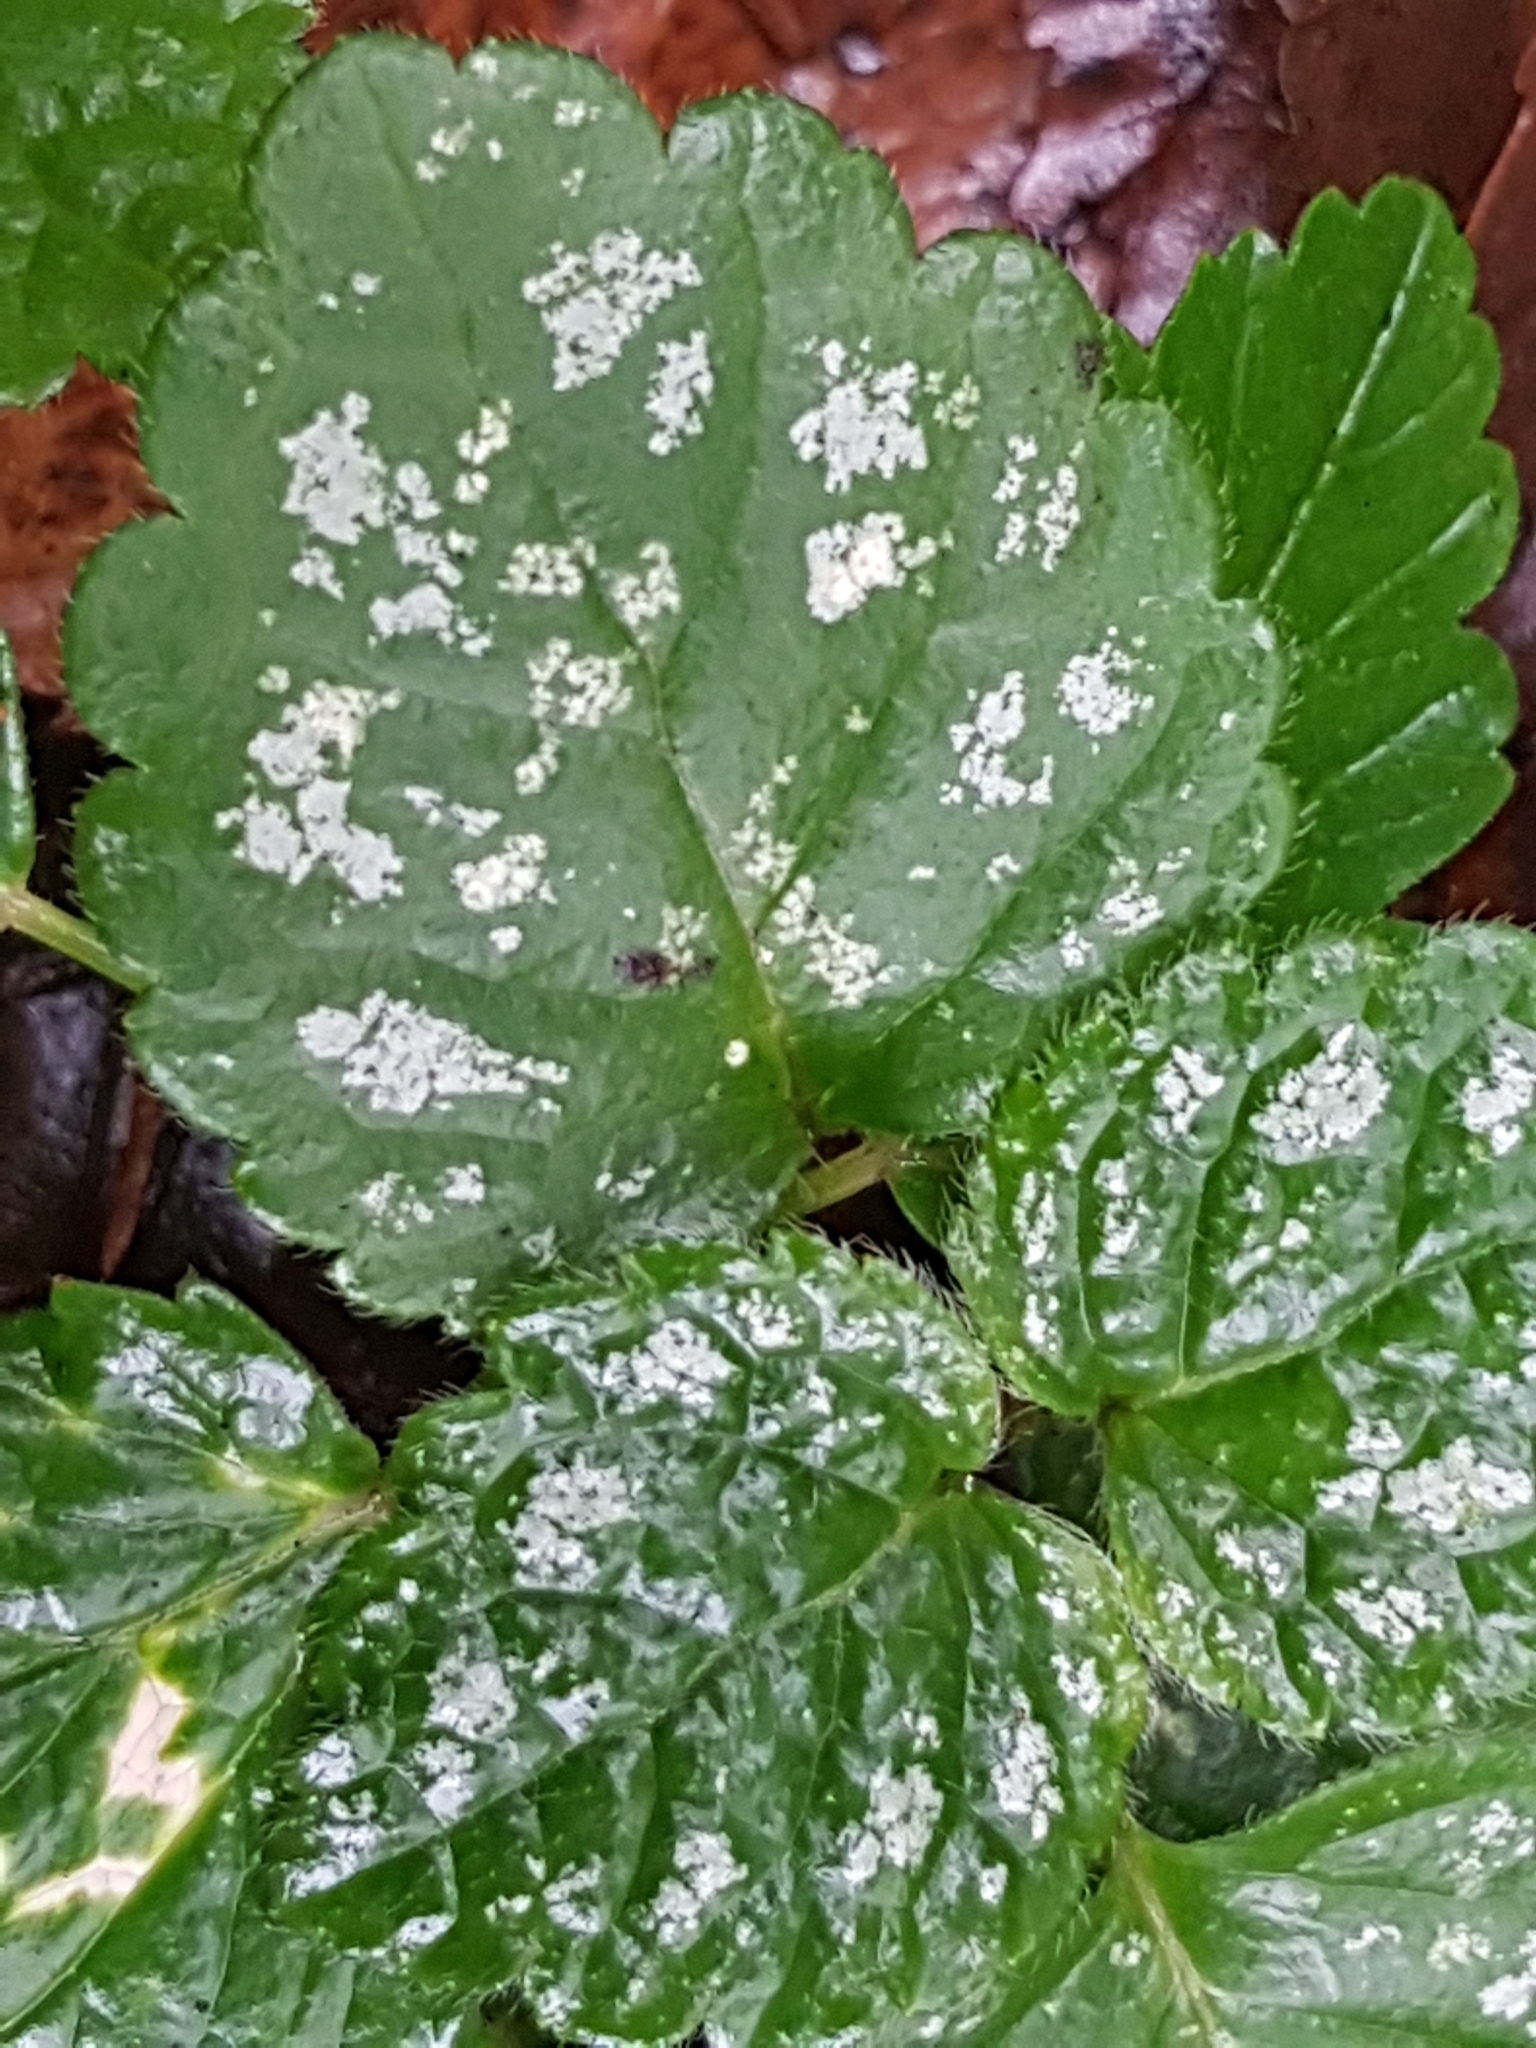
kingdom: Plantae
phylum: Tracheophyta
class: Magnoliopsida
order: Lamiales
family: Lamiaceae
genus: Lamium
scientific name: Lamium galeobdolon
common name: Yellow archangel
